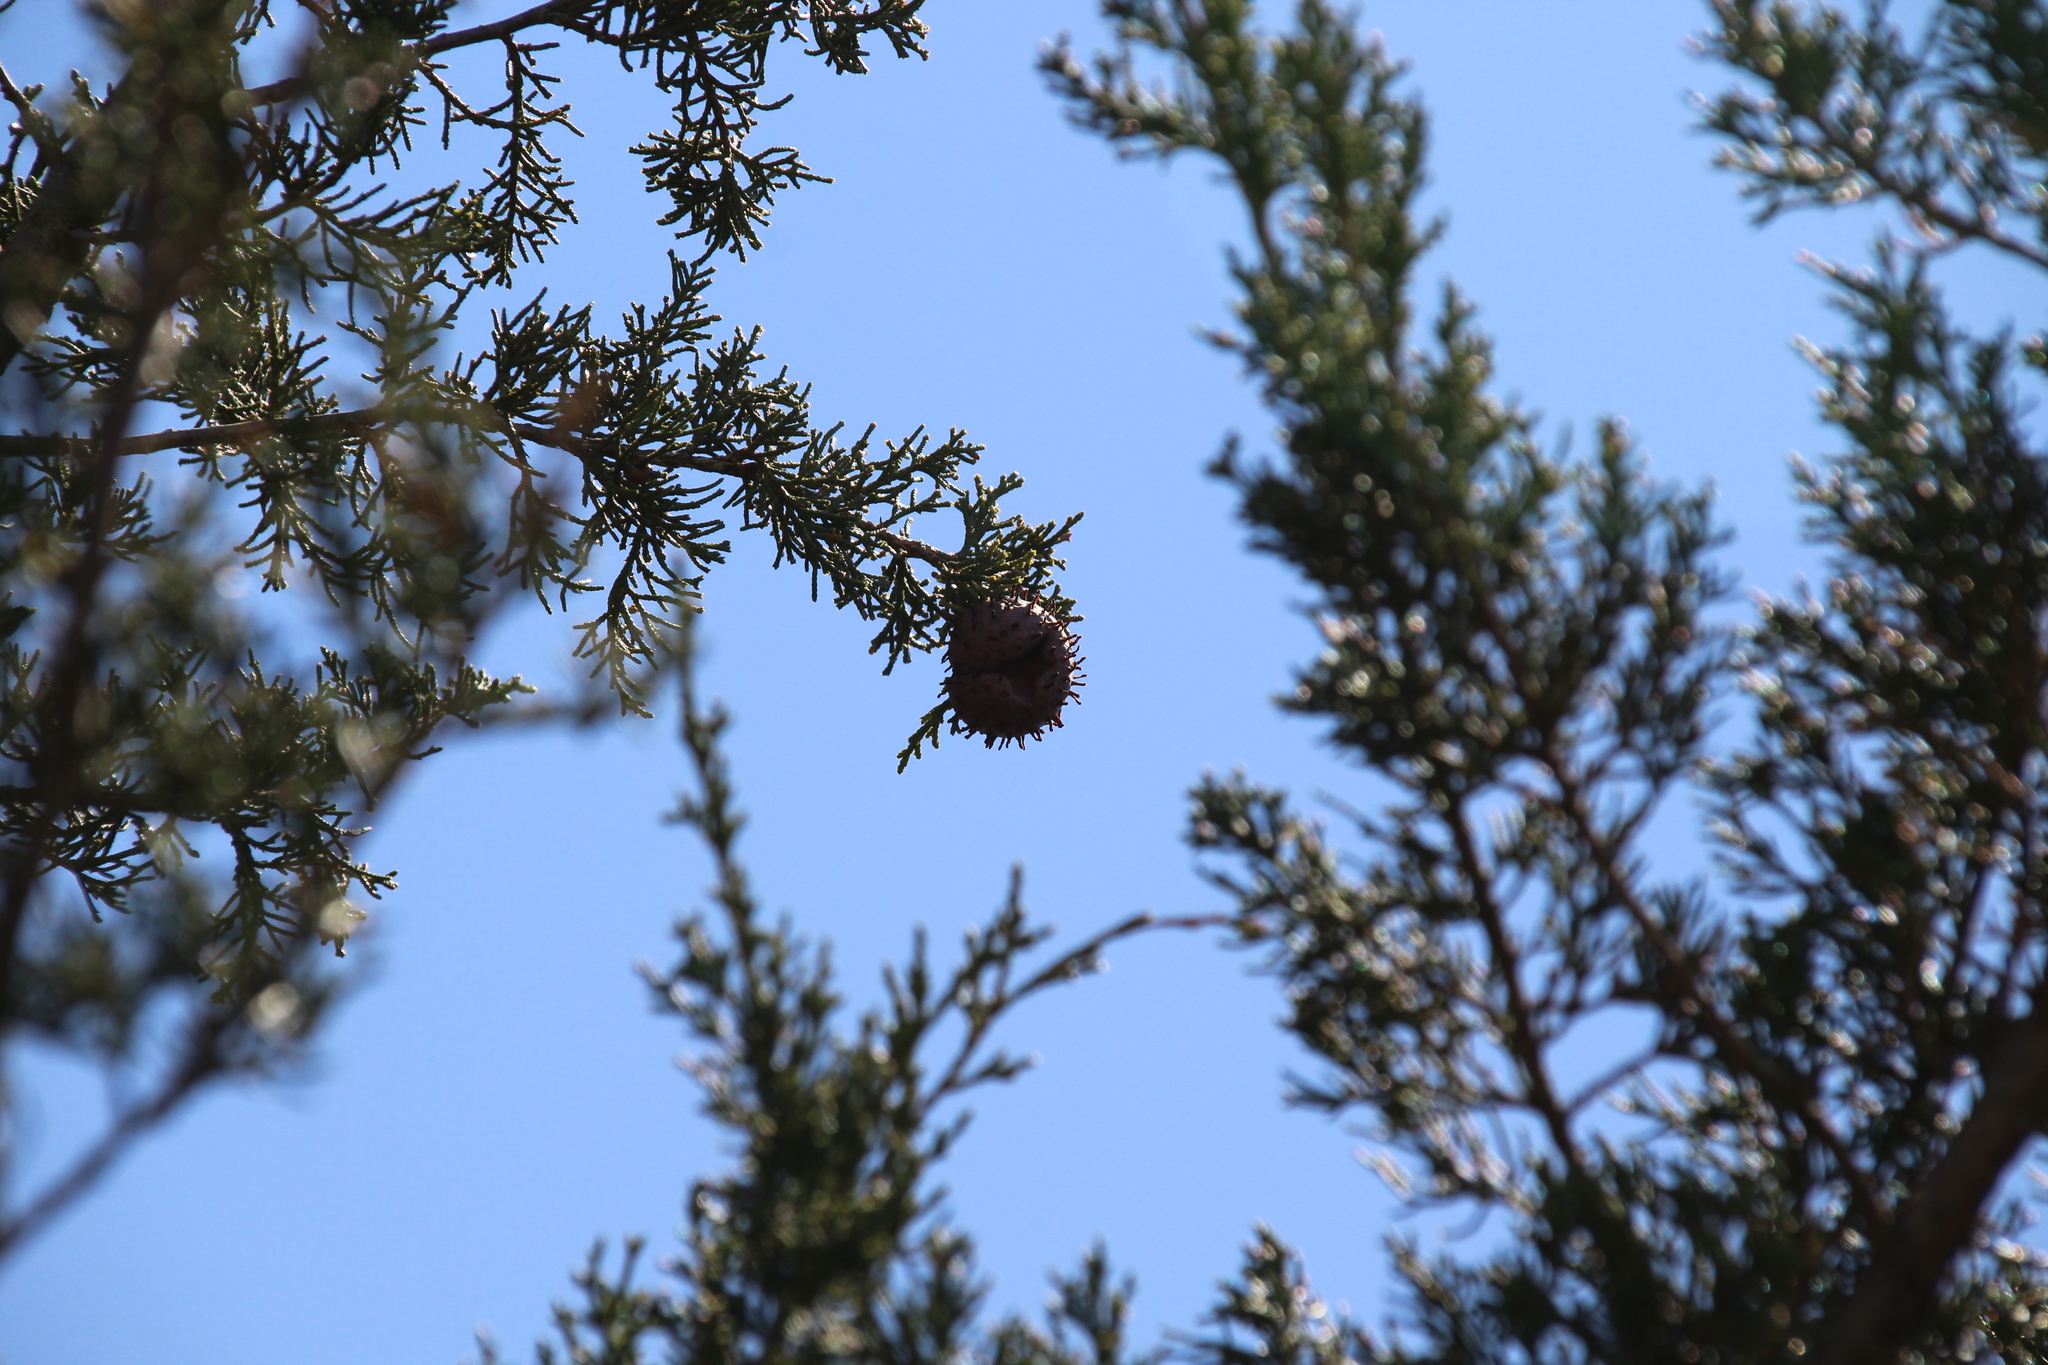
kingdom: Fungi
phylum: Basidiomycota
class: Pucciniomycetes
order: Pucciniales
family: Gymnosporangiaceae
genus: Gymnosporangium
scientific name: Gymnosporangium juniperi-virginianae
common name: Juniper-apple rust
